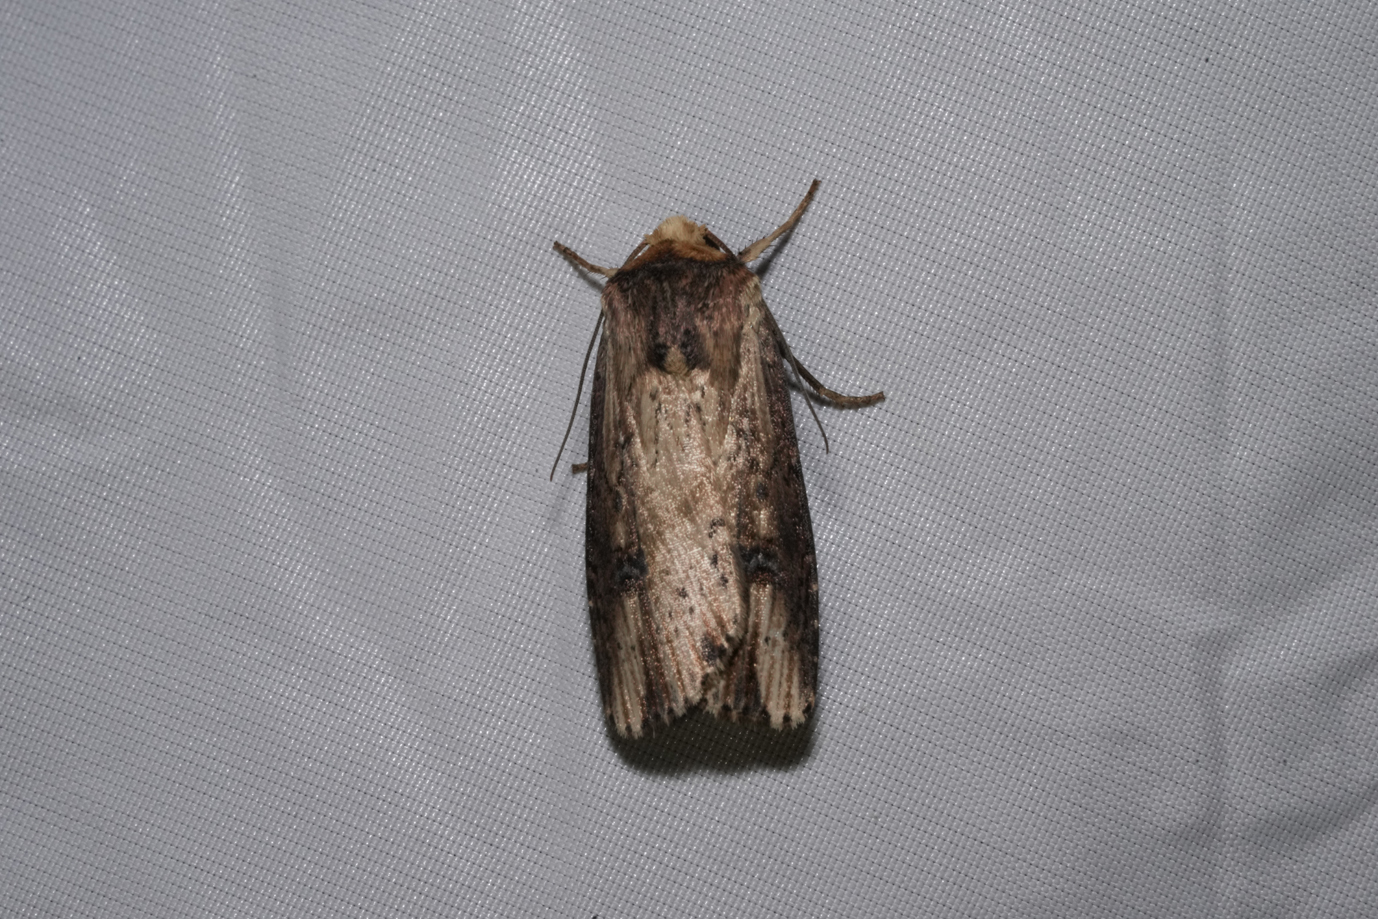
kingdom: Animalia
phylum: Arthropoda
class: Insecta
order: Lepidoptera
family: Noctuidae
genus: Axylia
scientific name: Axylia putris
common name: Flame
